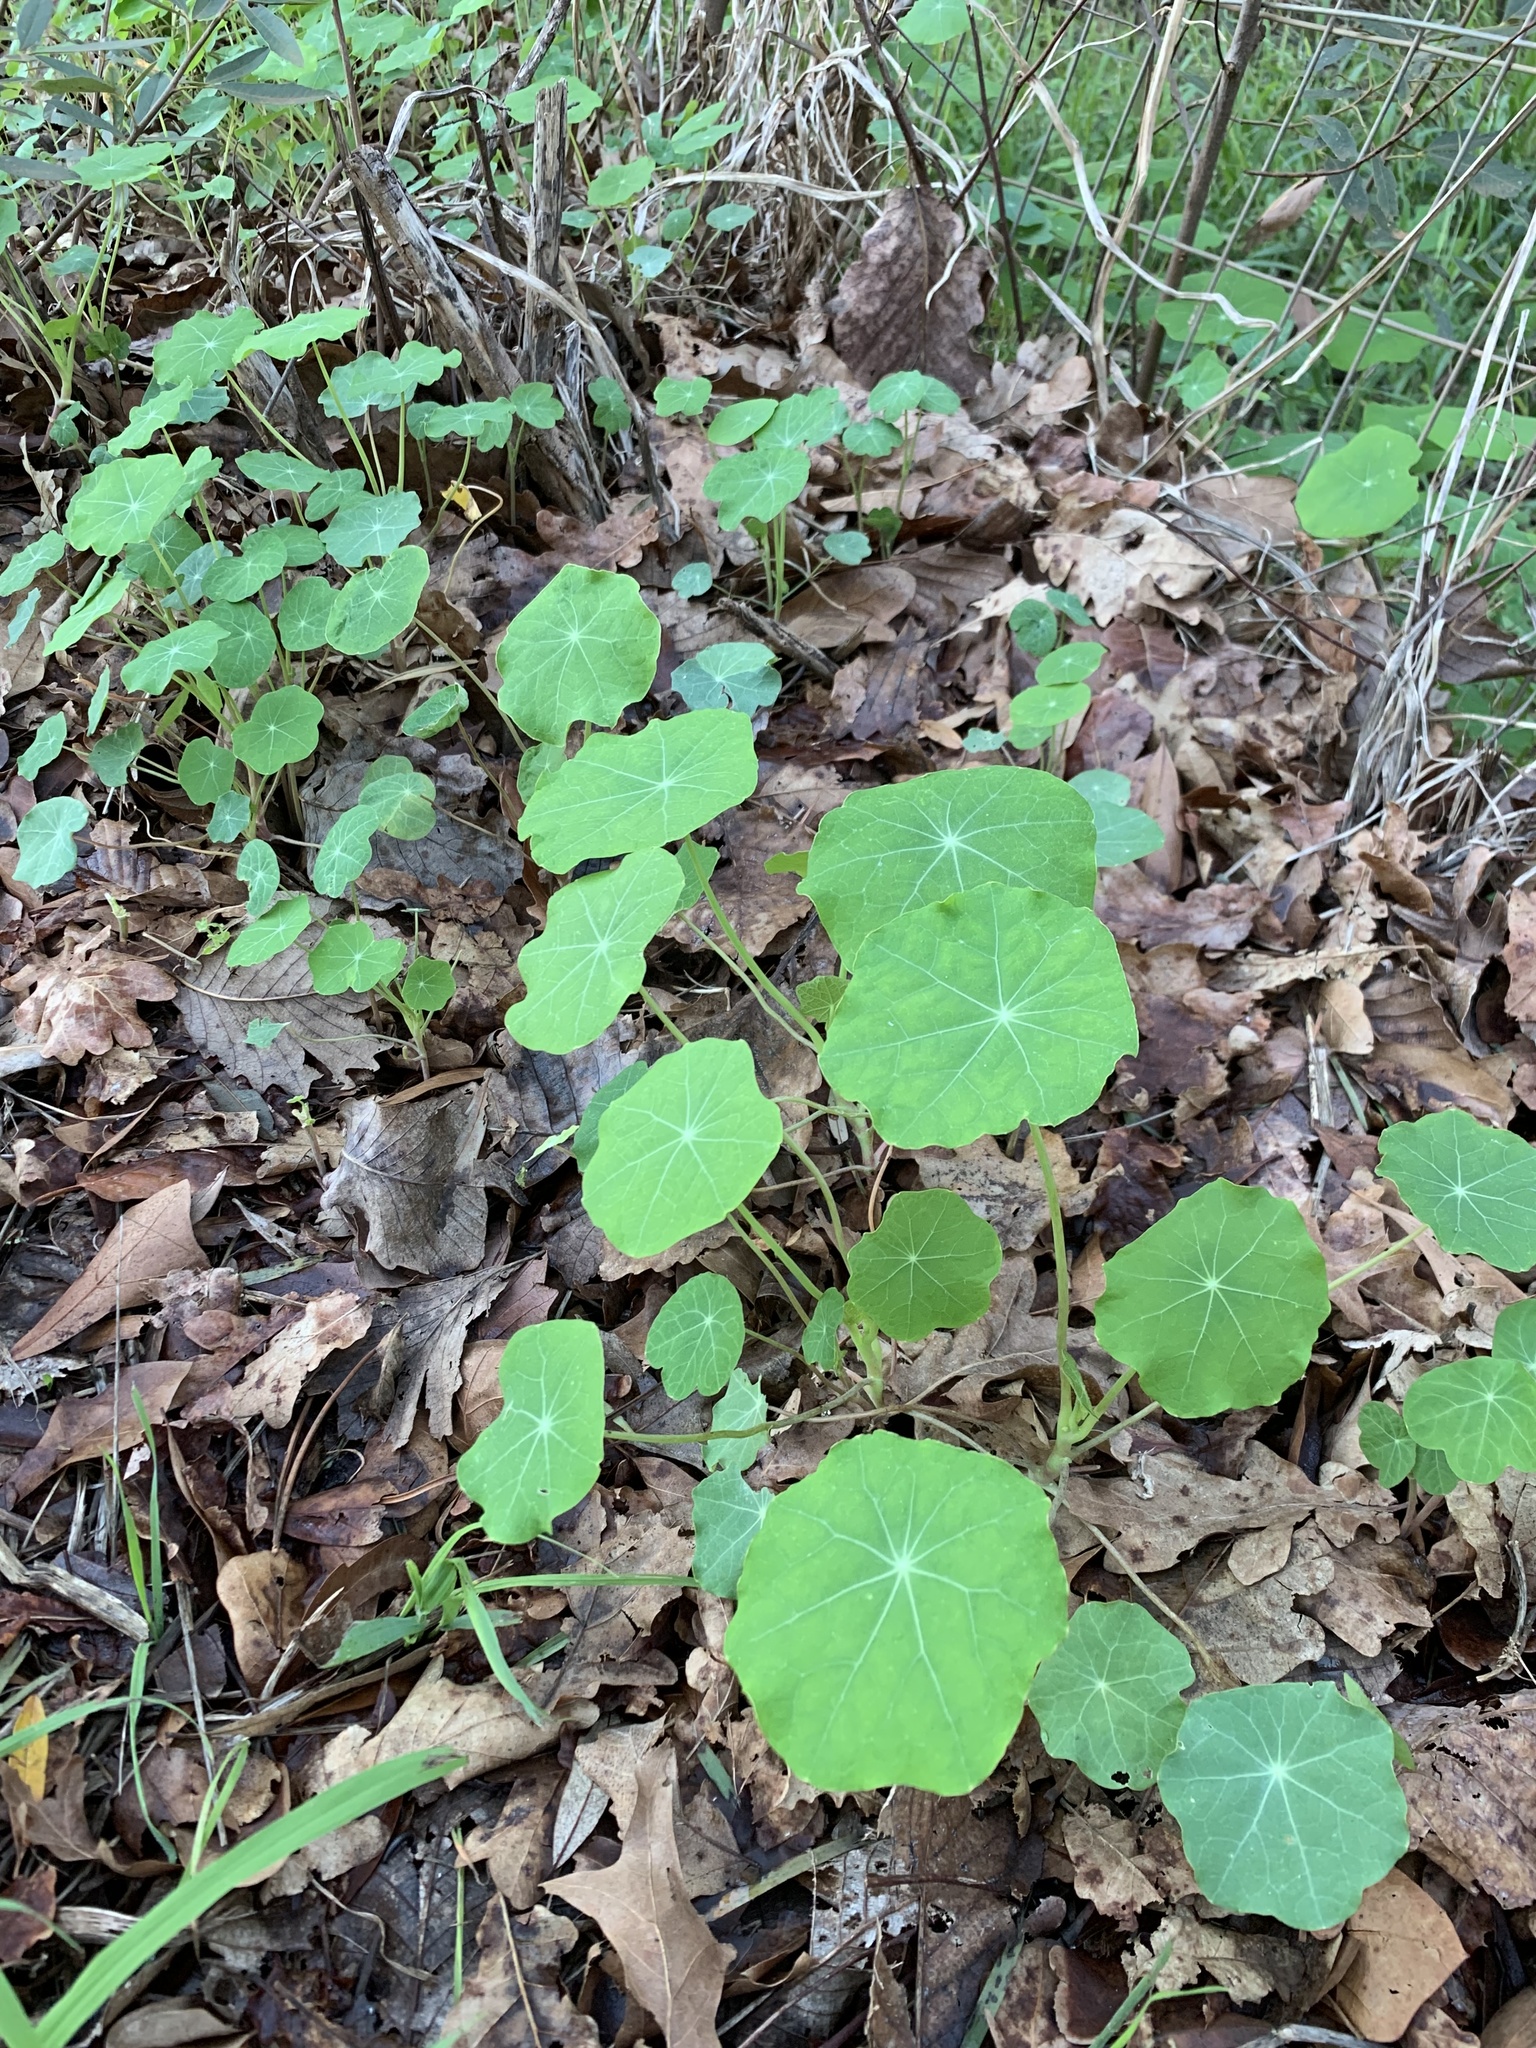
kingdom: Plantae
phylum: Tracheophyta
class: Magnoliopsida
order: Brassicales
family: Tropaeolaceae
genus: Tropaeolum
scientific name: Tropaeolum majus
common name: Nasturtium
